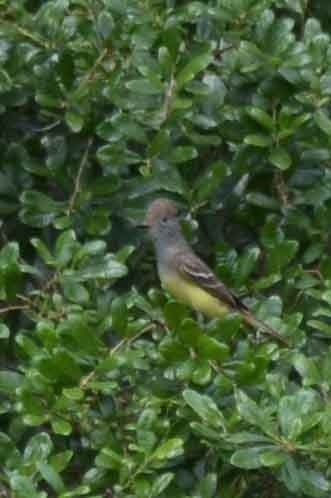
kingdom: Animalia
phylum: Chordata
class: Aves
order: Passeriformes
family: Tyrannidae
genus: Myiarchus
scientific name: Myiarchus crinitus
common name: Great crested flycatcher
